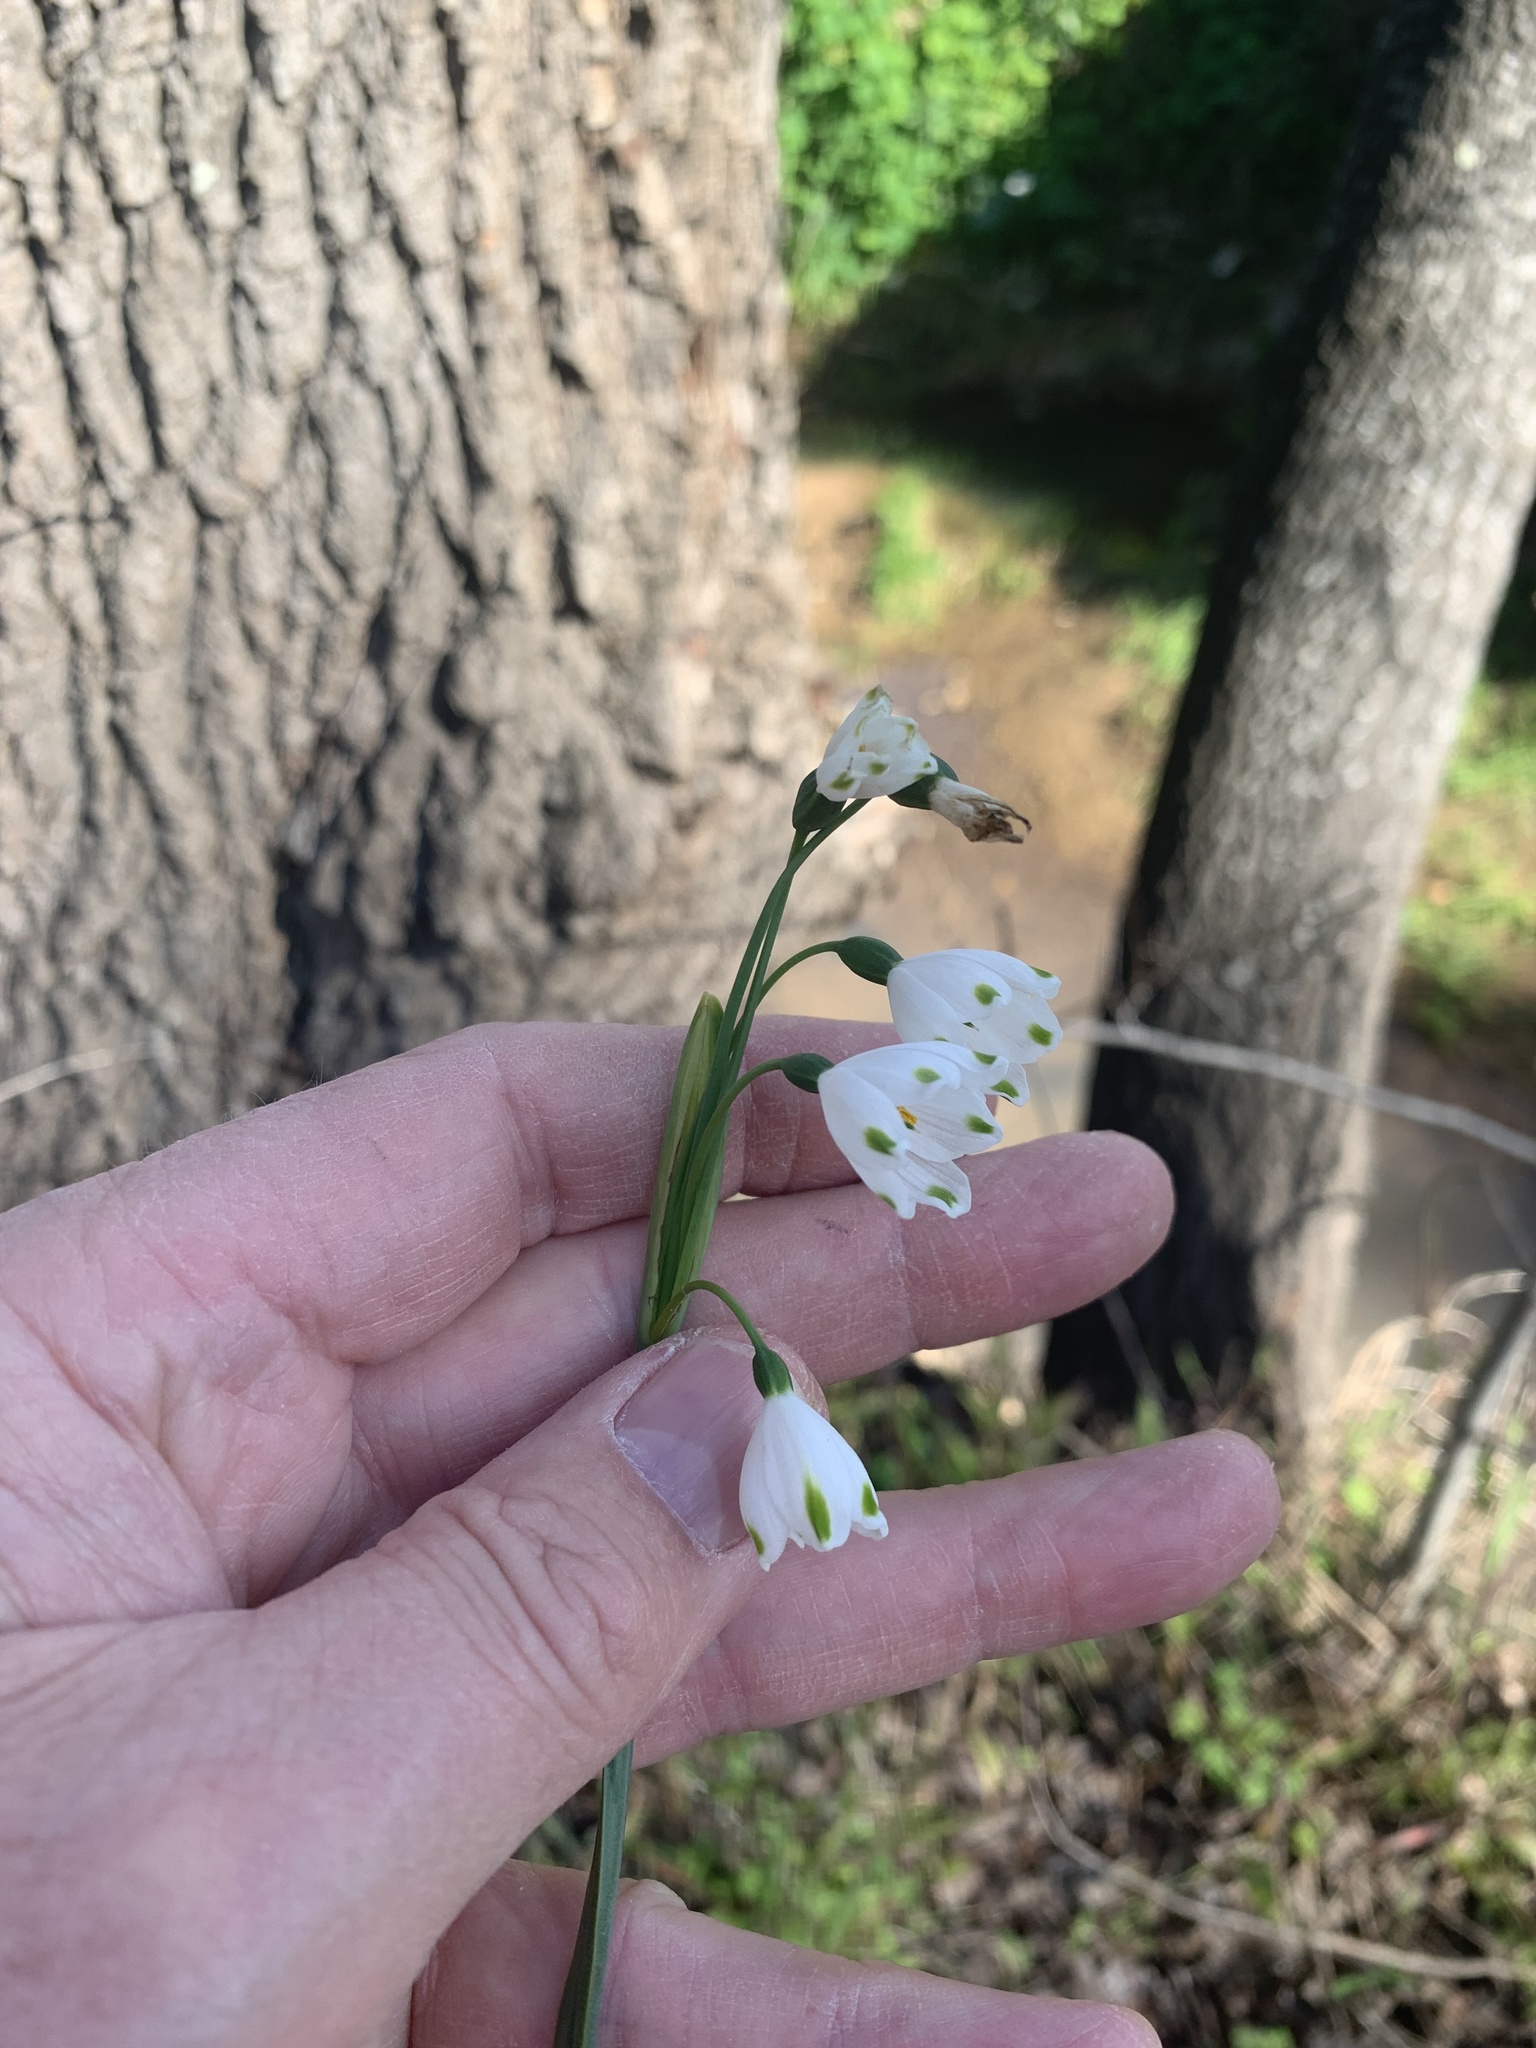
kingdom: Plantae
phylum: Tracheophyta
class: Liliopsida
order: Asparagales
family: Amaryllidaceae
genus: Leucojum
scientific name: Leucojum aestivum
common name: Summer snowflake
